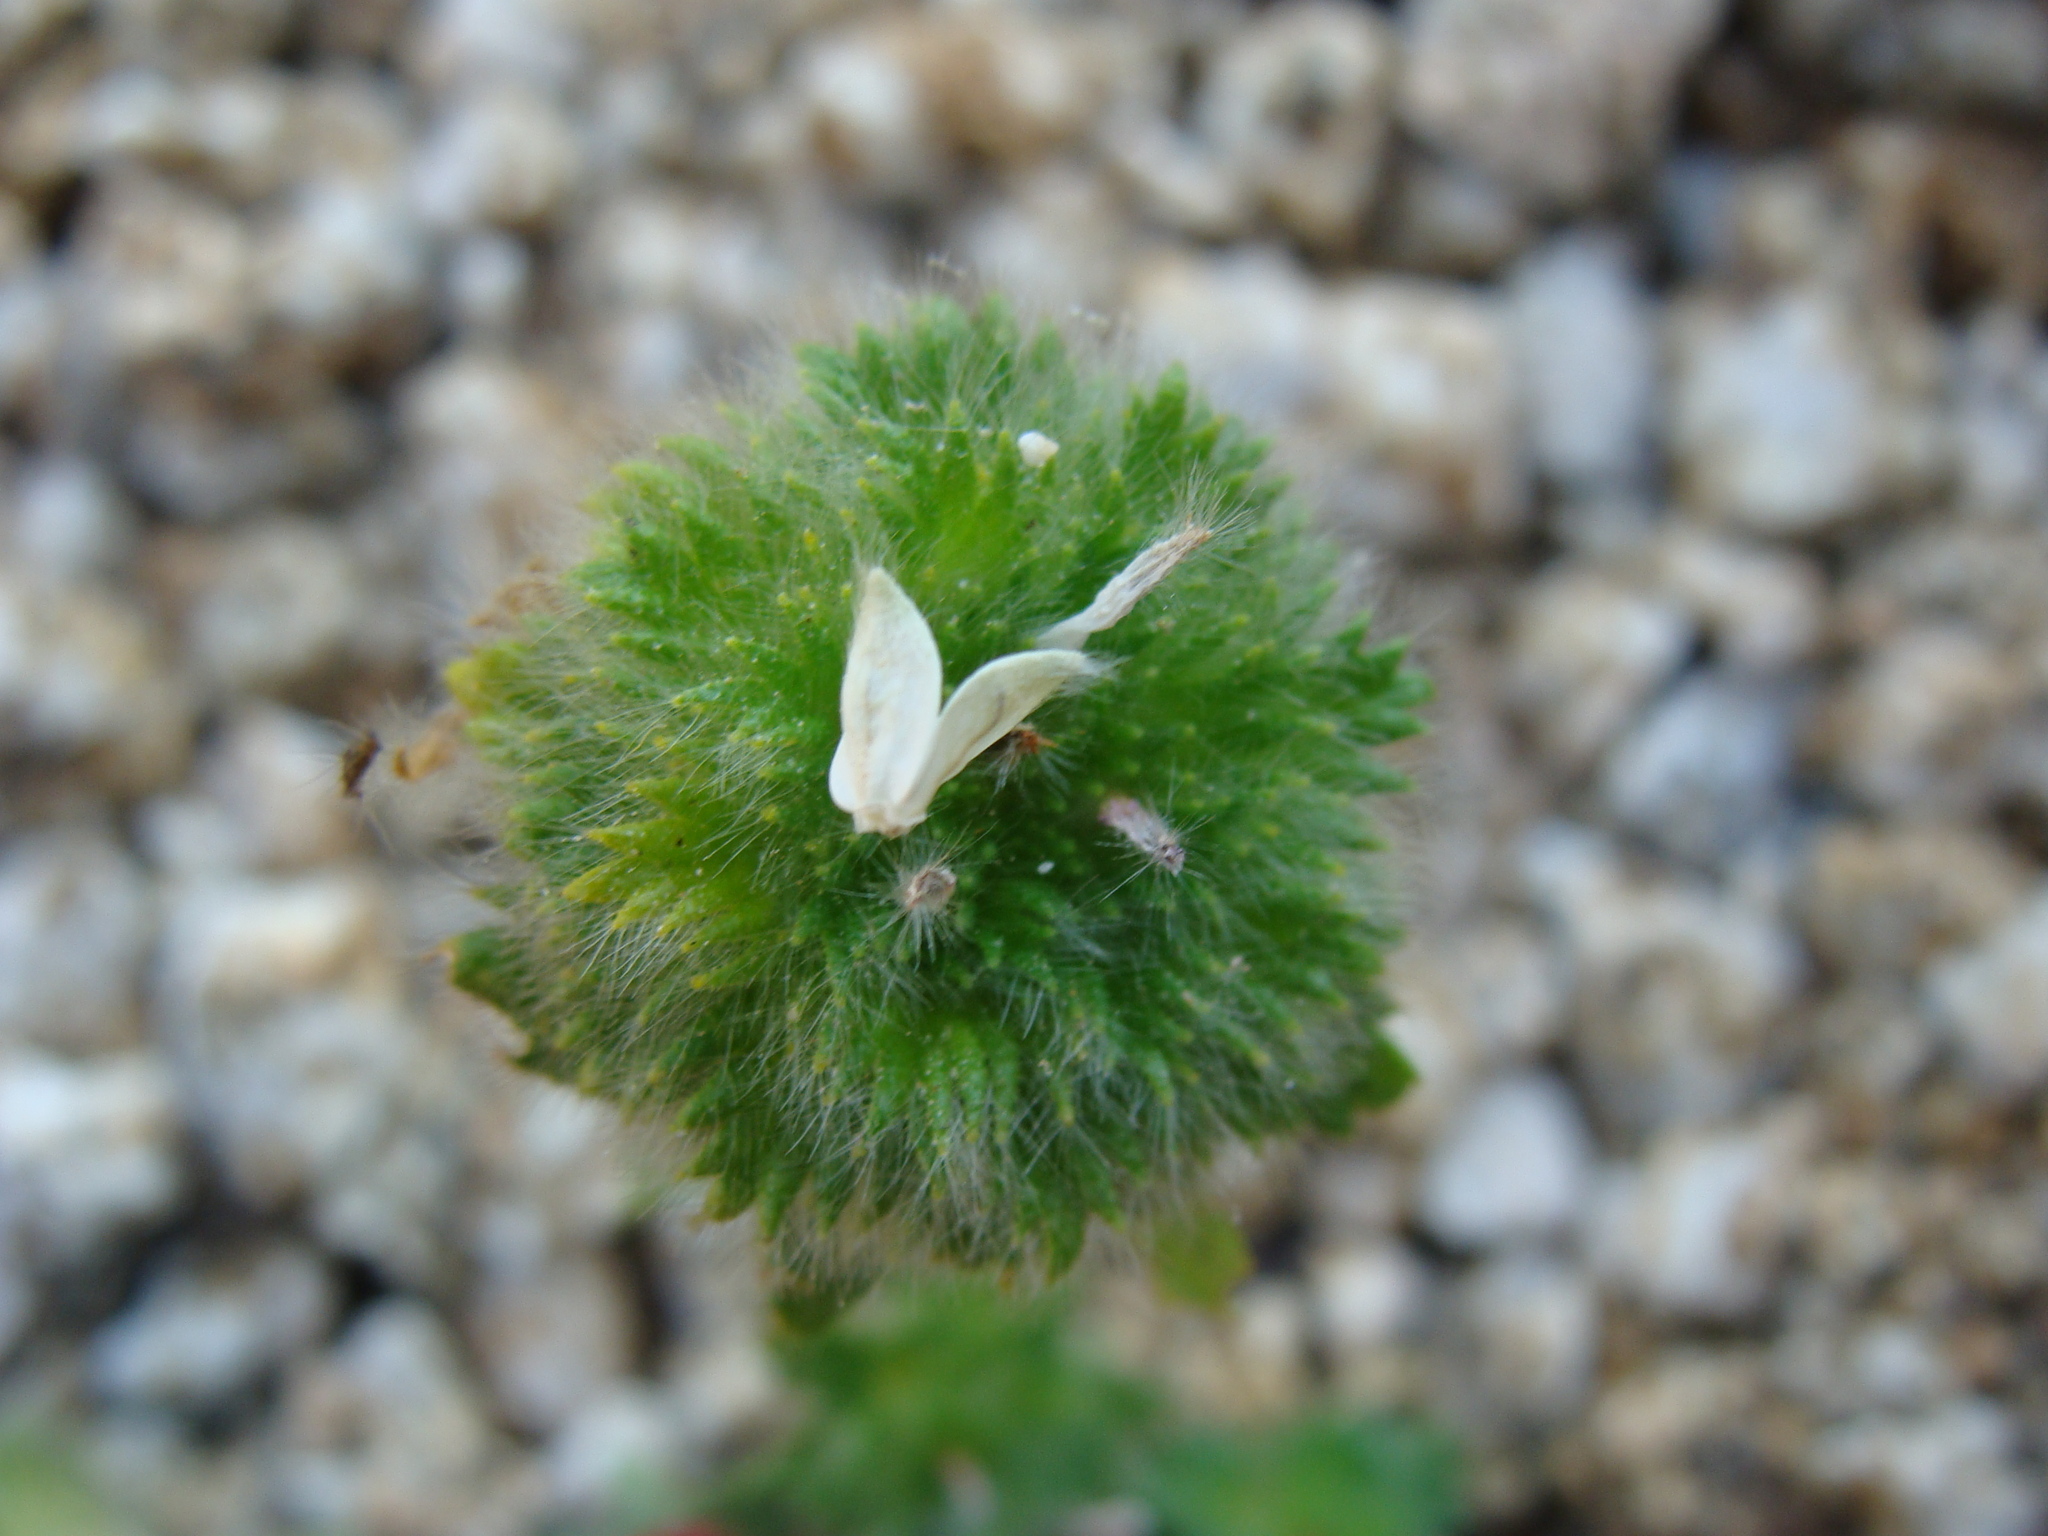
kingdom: Plantae
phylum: Tracheophyta
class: Magnoliopsida
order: Malpighiales
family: Turneraceae
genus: Turnera
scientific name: Turnera pumilea
